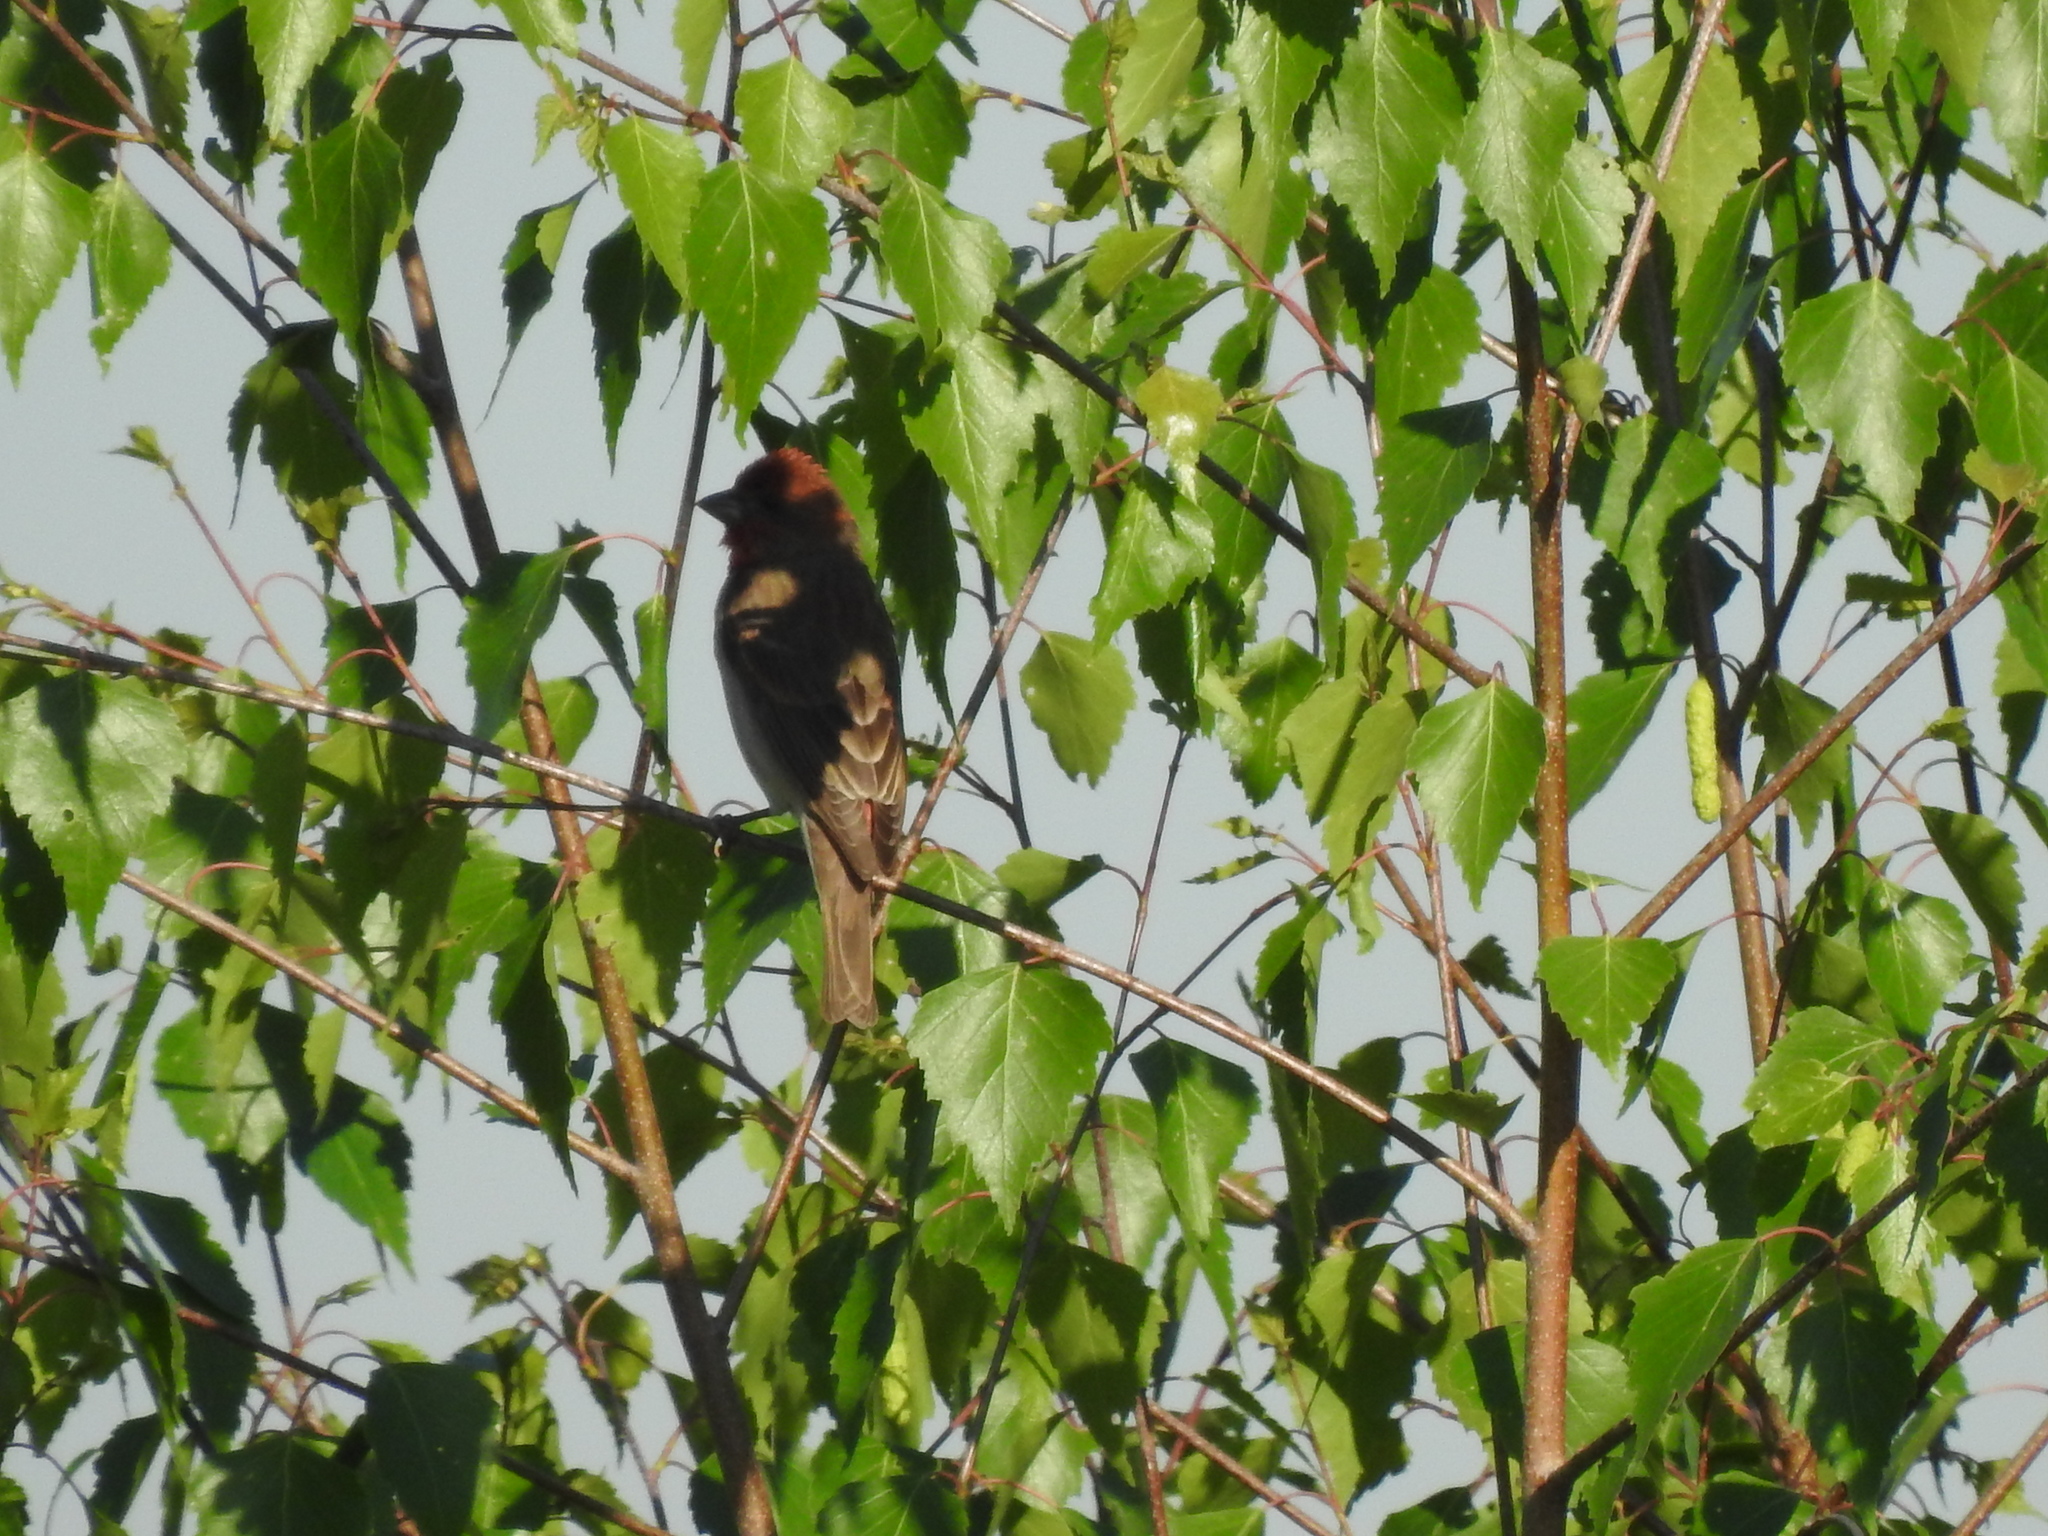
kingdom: Animalia
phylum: Chordata
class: Aves
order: Passeriformes
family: Fringillidae
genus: Carpodacus
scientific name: Carpodacus erythrinus
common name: Common rosefinch
